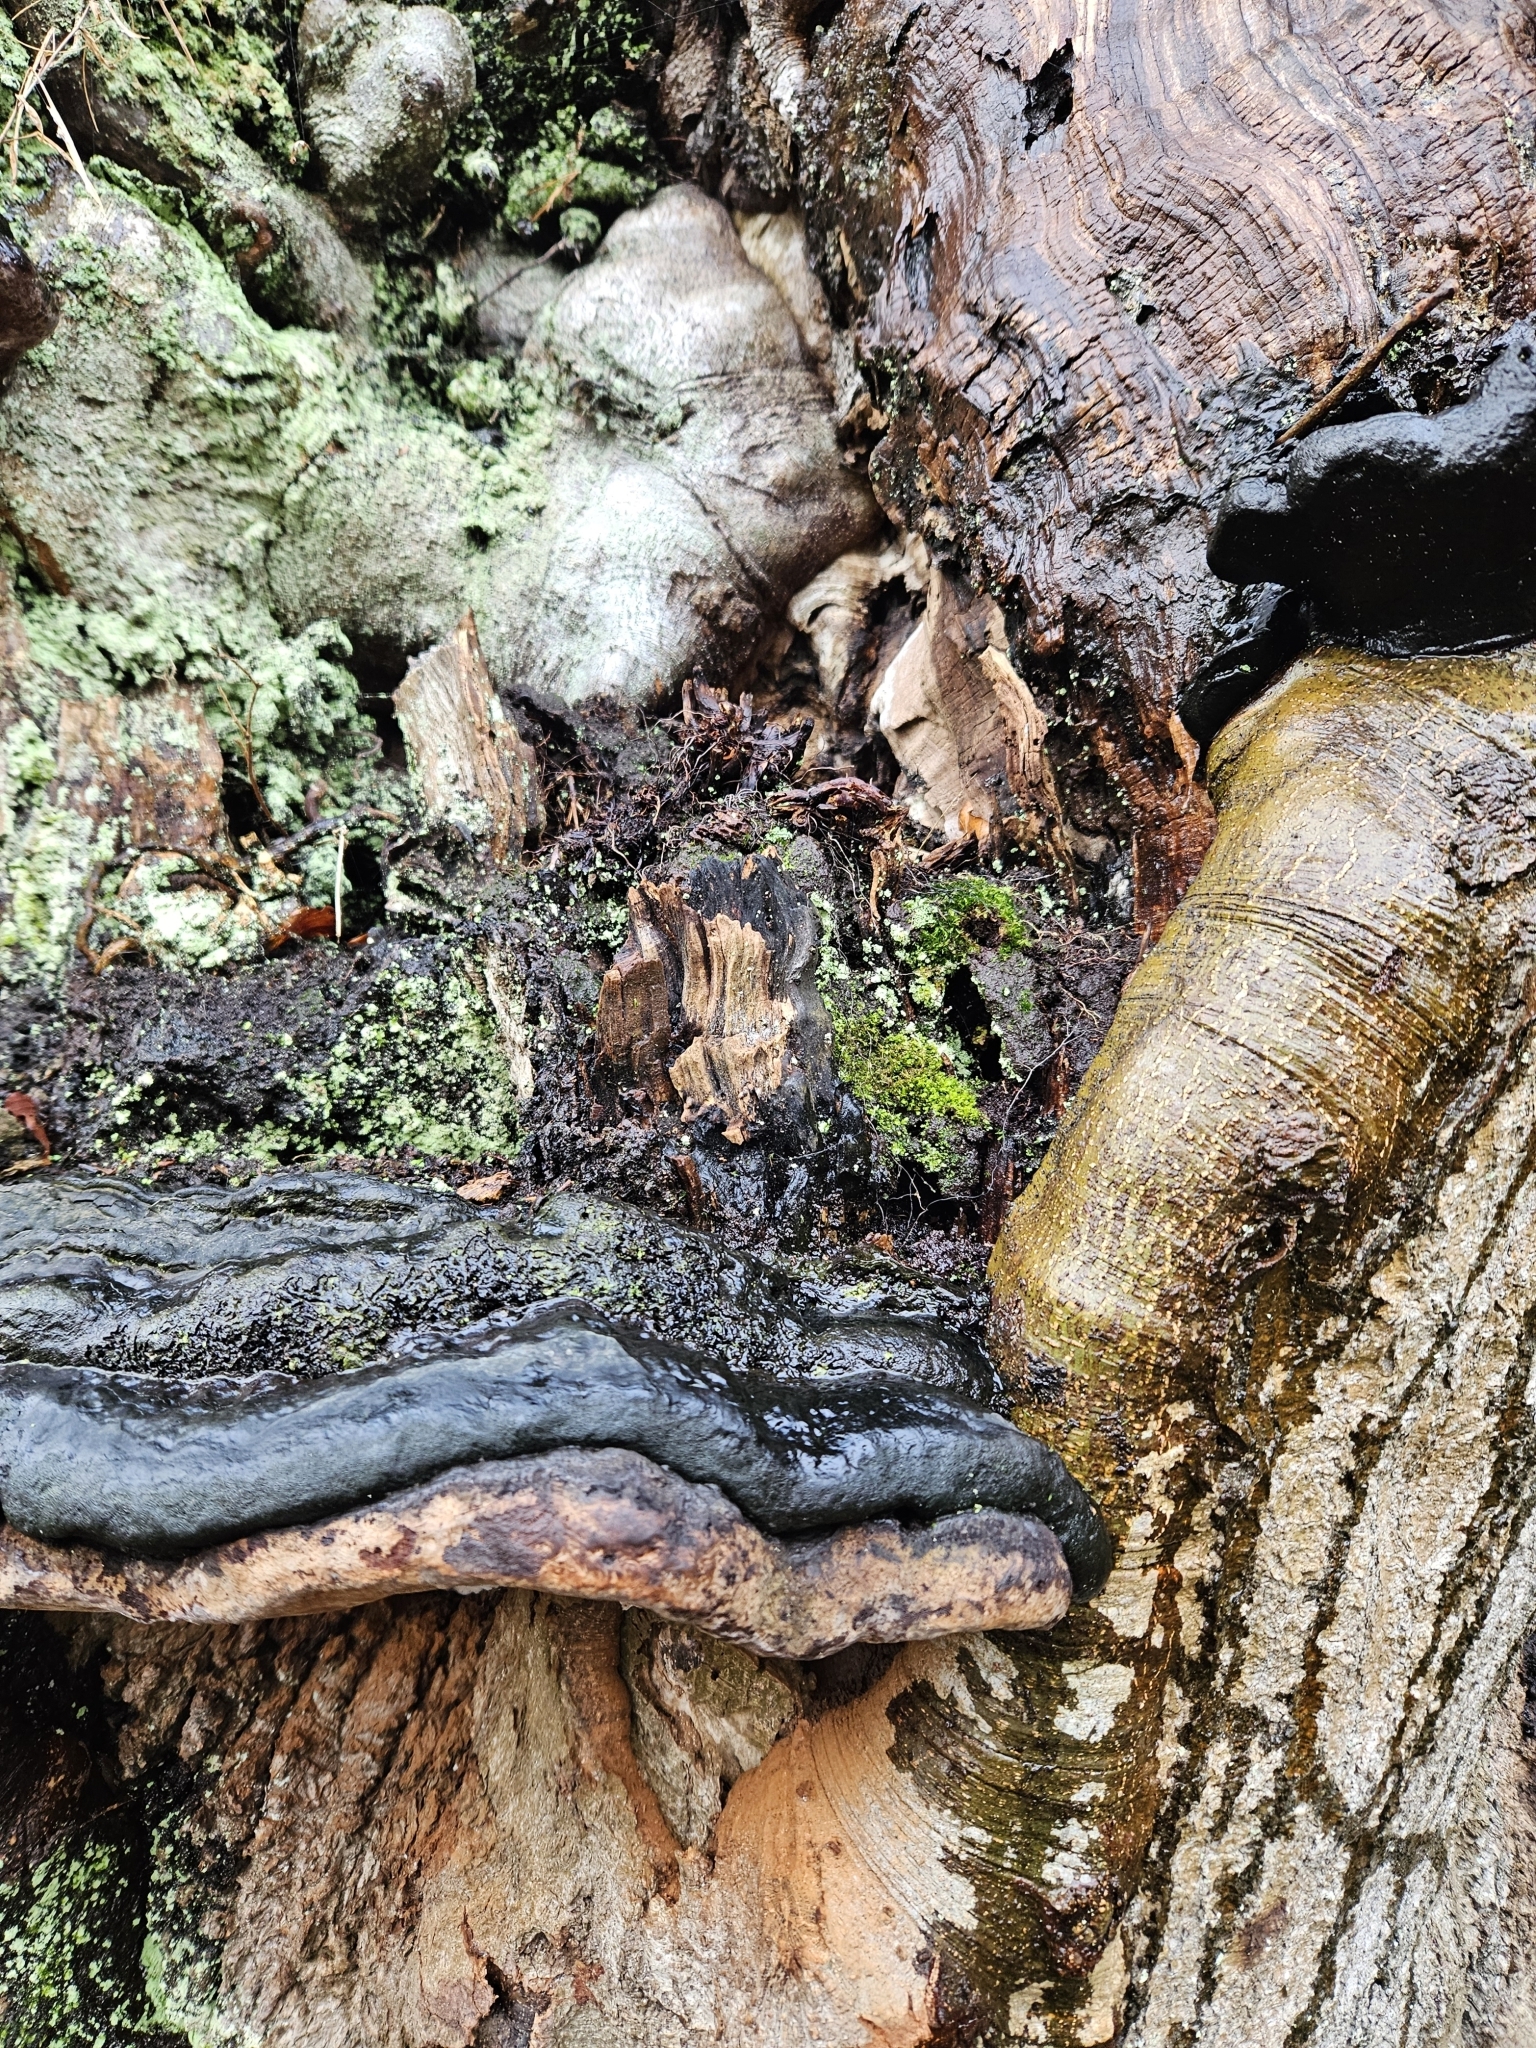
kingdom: Plantae
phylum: Bryophyta
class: Bryopsida
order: Aulacomniales
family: Aulacomniaceae
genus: Aulacomnium
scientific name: Aulacomnium androgynum
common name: Little groove moss
